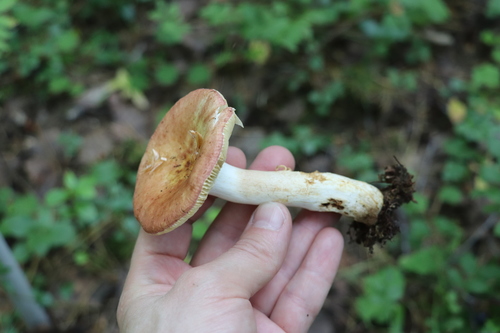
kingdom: Fungi
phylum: Basidiomycota
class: Agaricomycetes
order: Russulales
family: Russulaceae
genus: Russula
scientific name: Russula maculata
